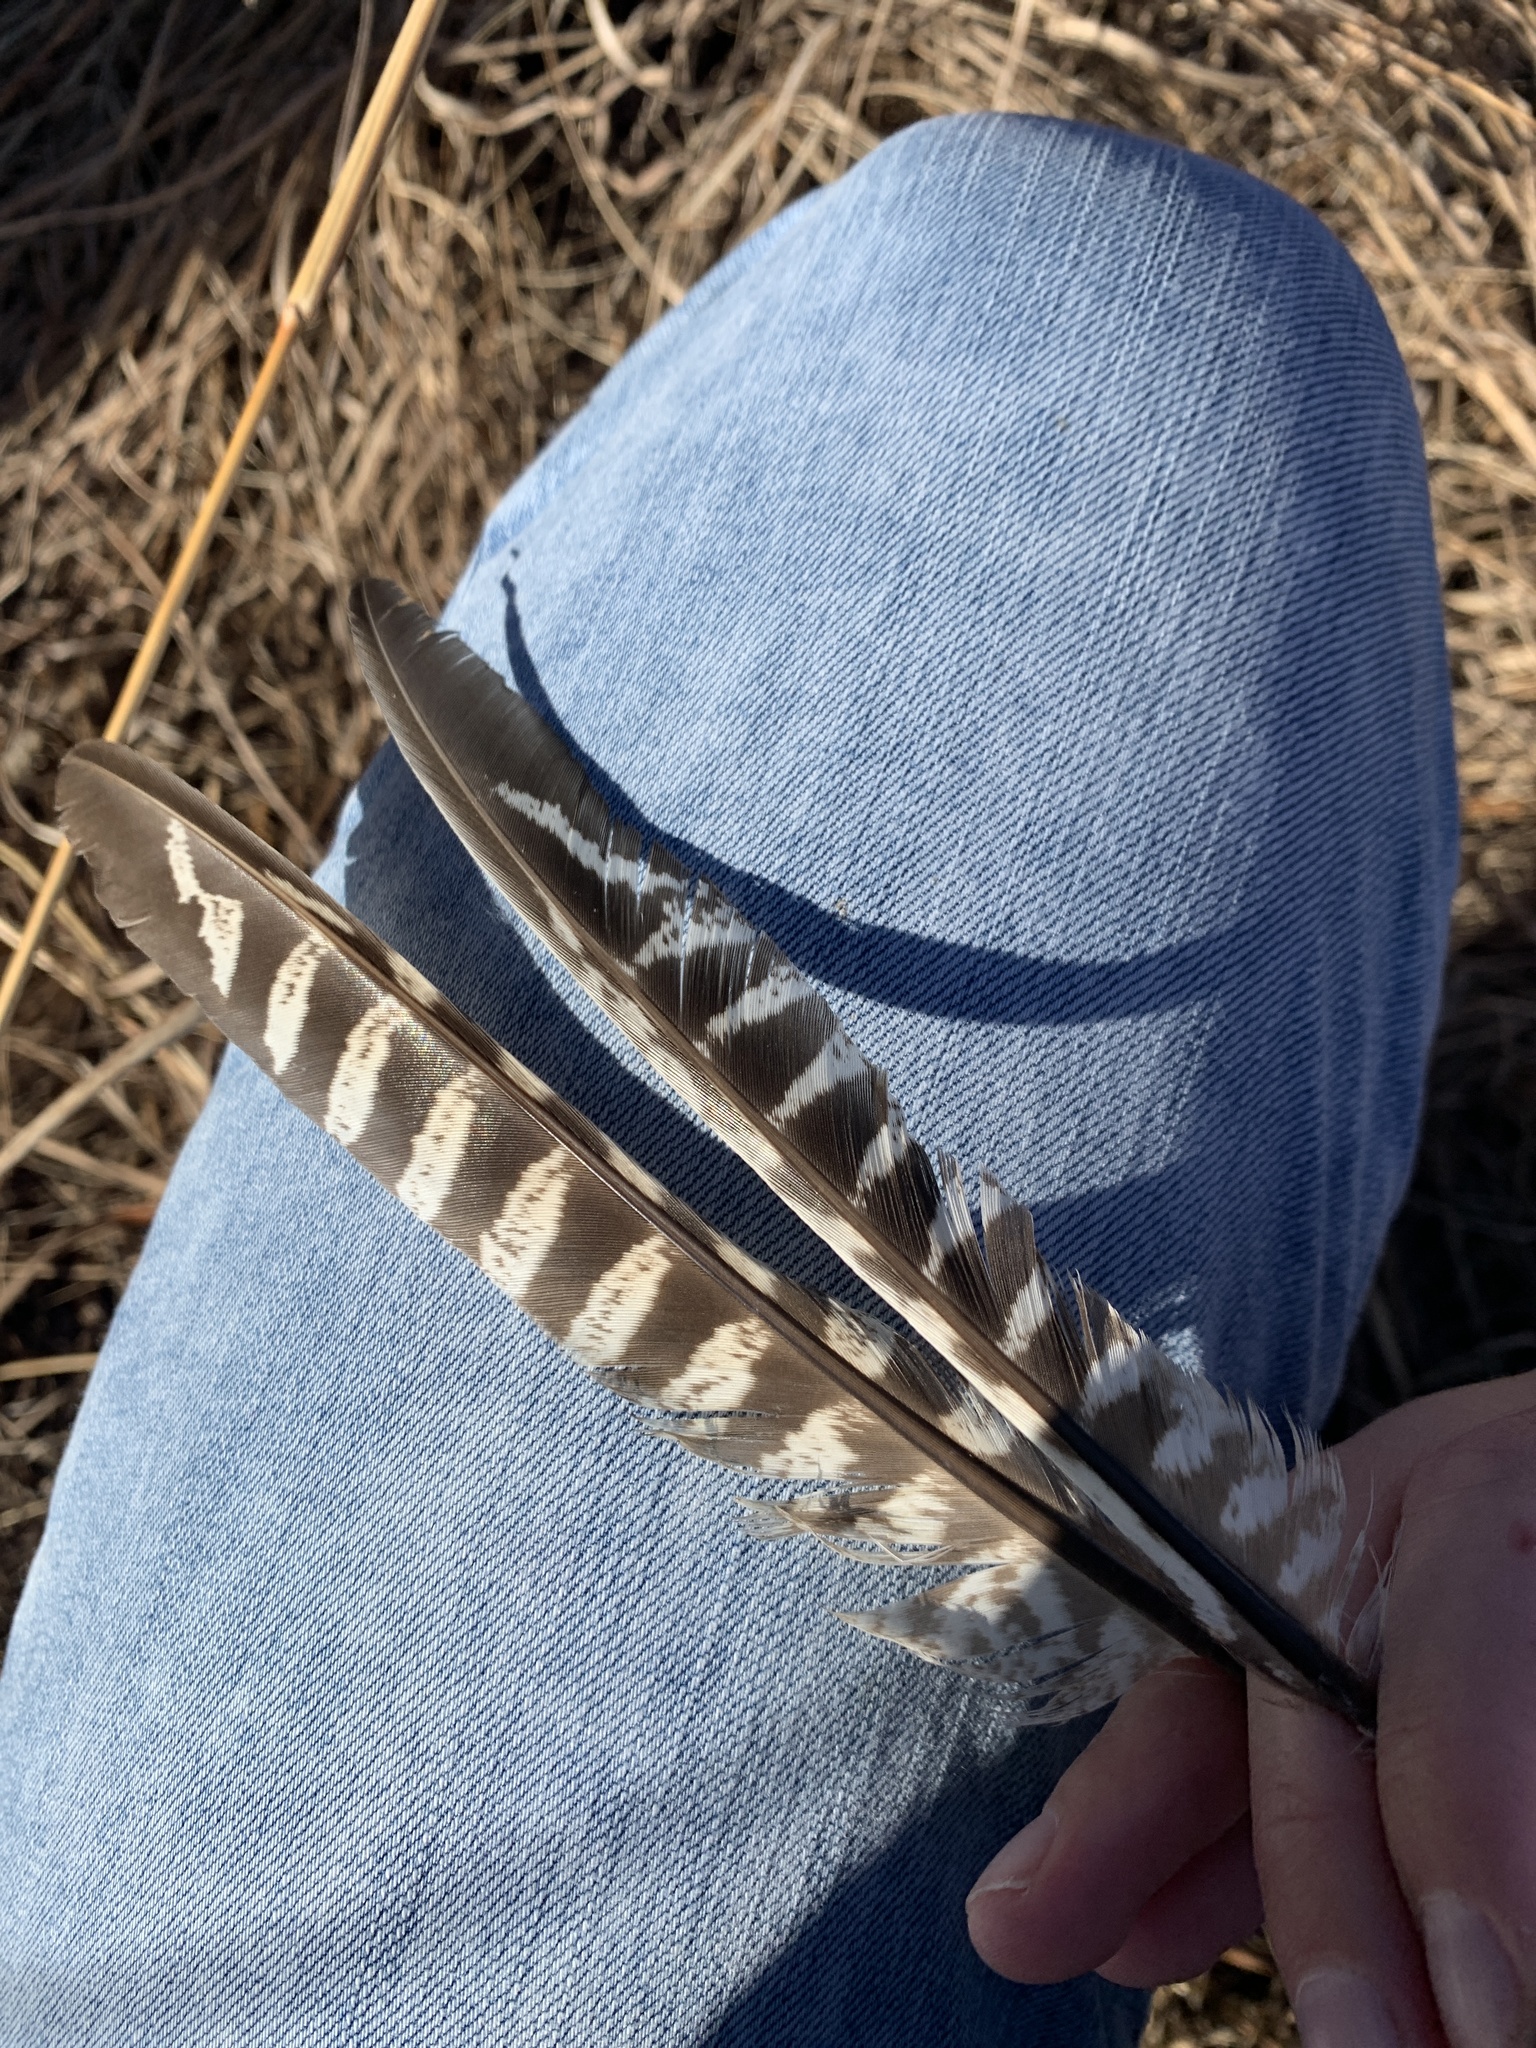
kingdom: Animalia
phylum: Chordata
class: Aves
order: Galliformes
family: Phasianidae
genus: Phasianus
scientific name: Phasianus colchicus
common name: Common pheasant
